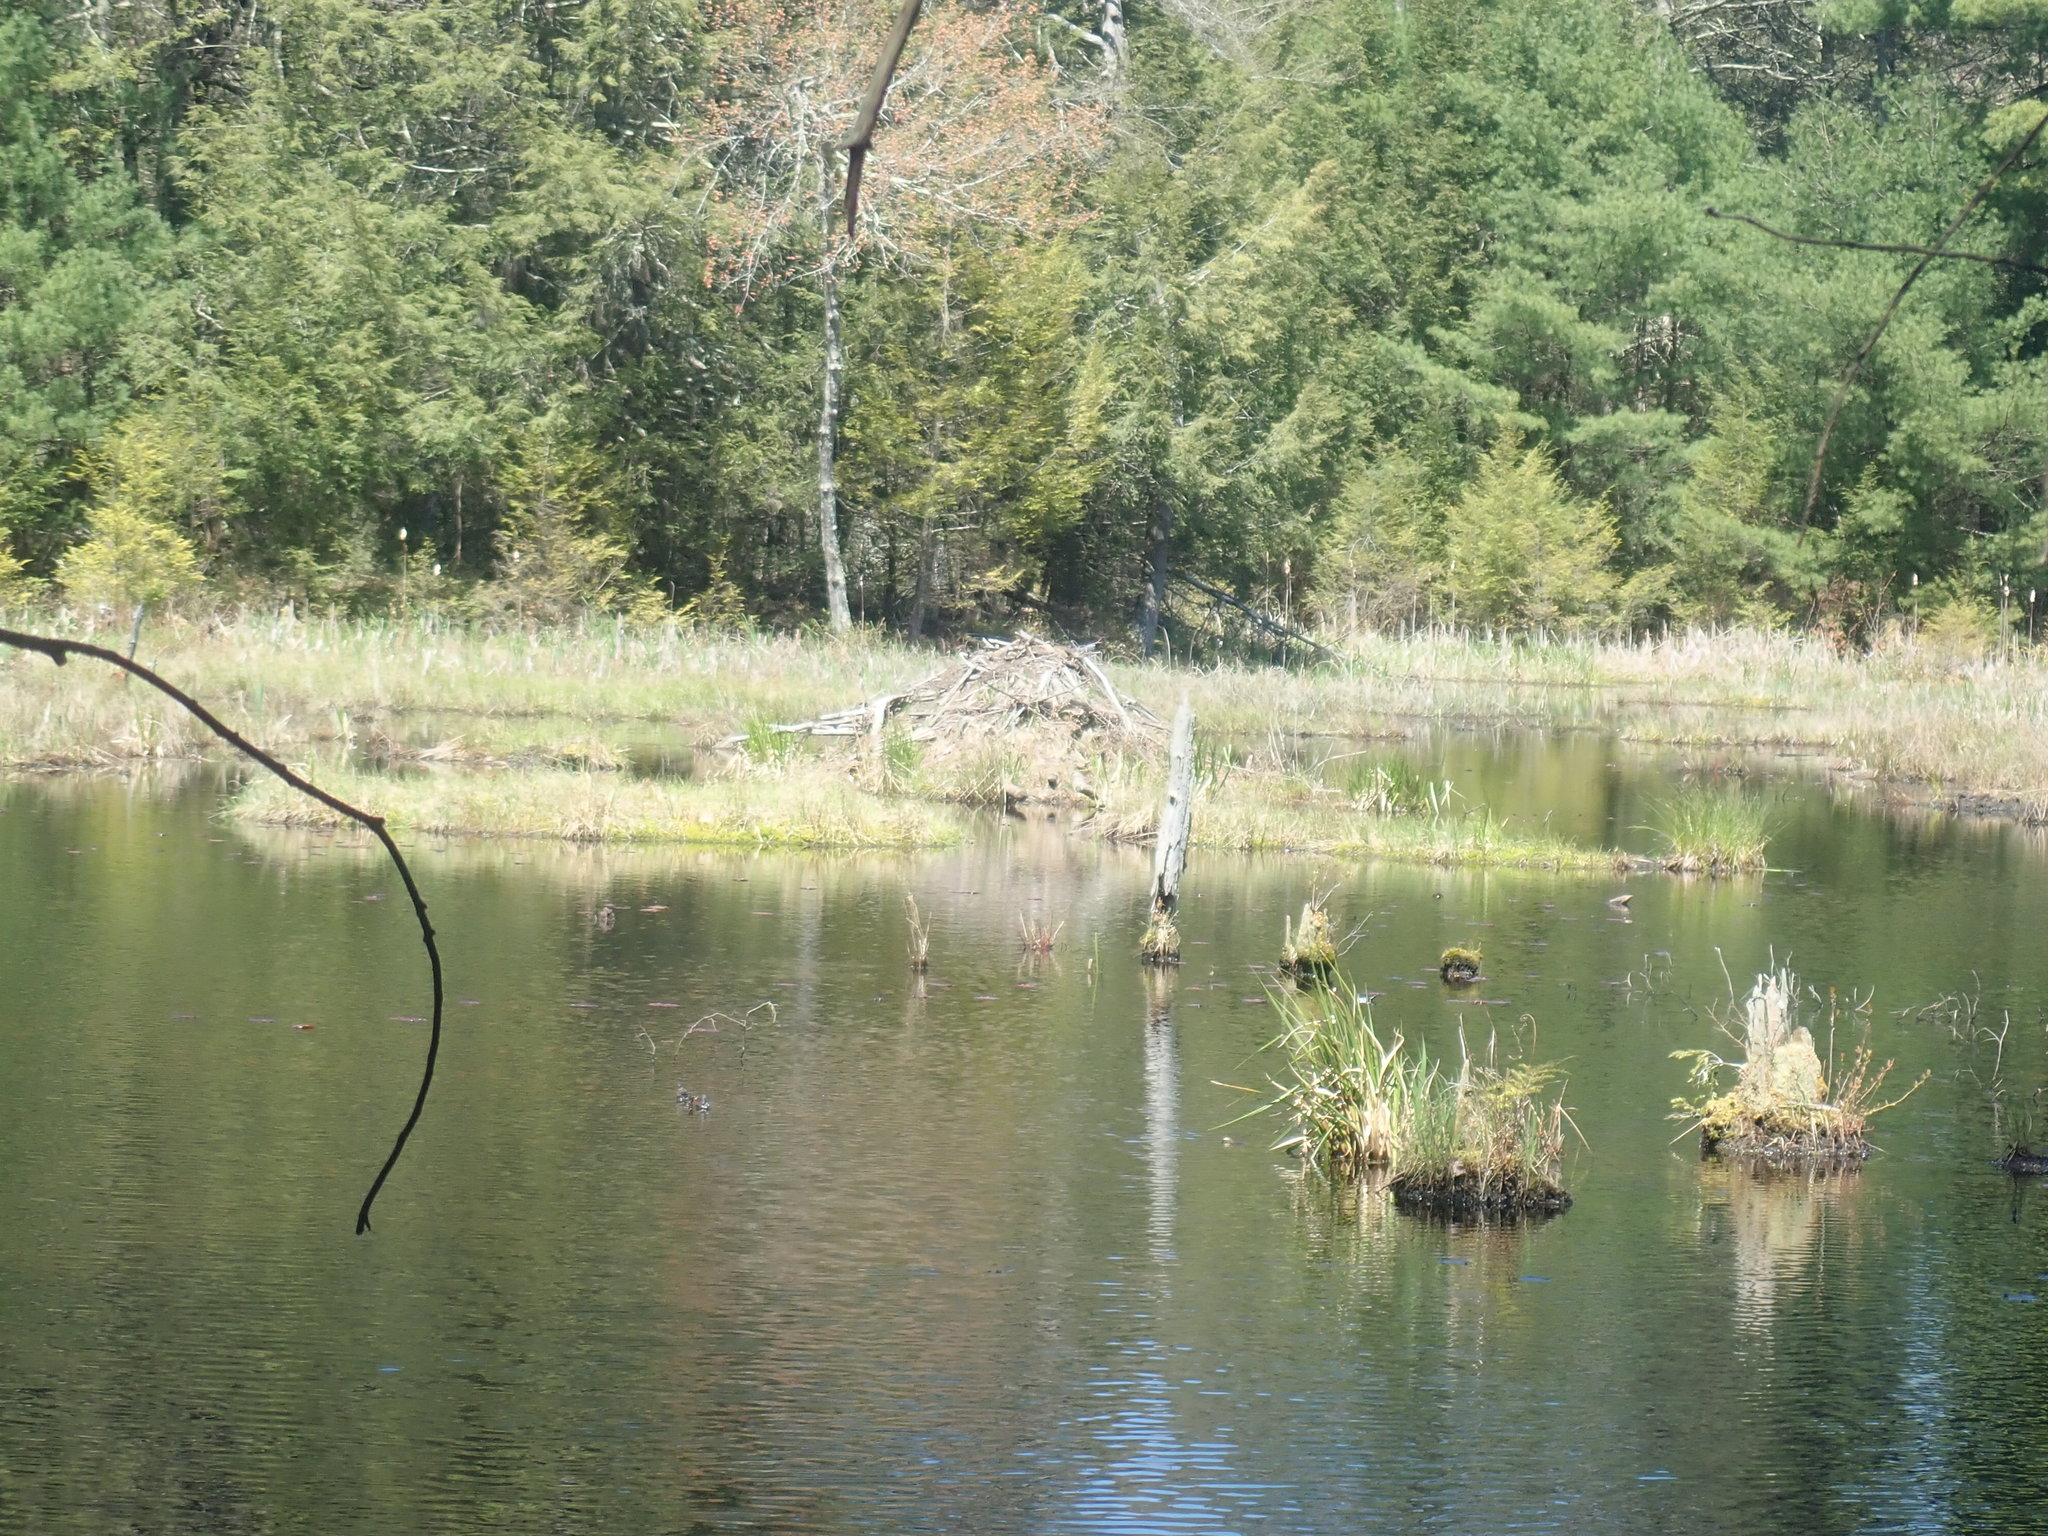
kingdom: Animalia
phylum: Chordata
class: Mammalia
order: Rodentia
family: Castoridae
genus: Castor
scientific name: Castor canadensis
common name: American beaver
